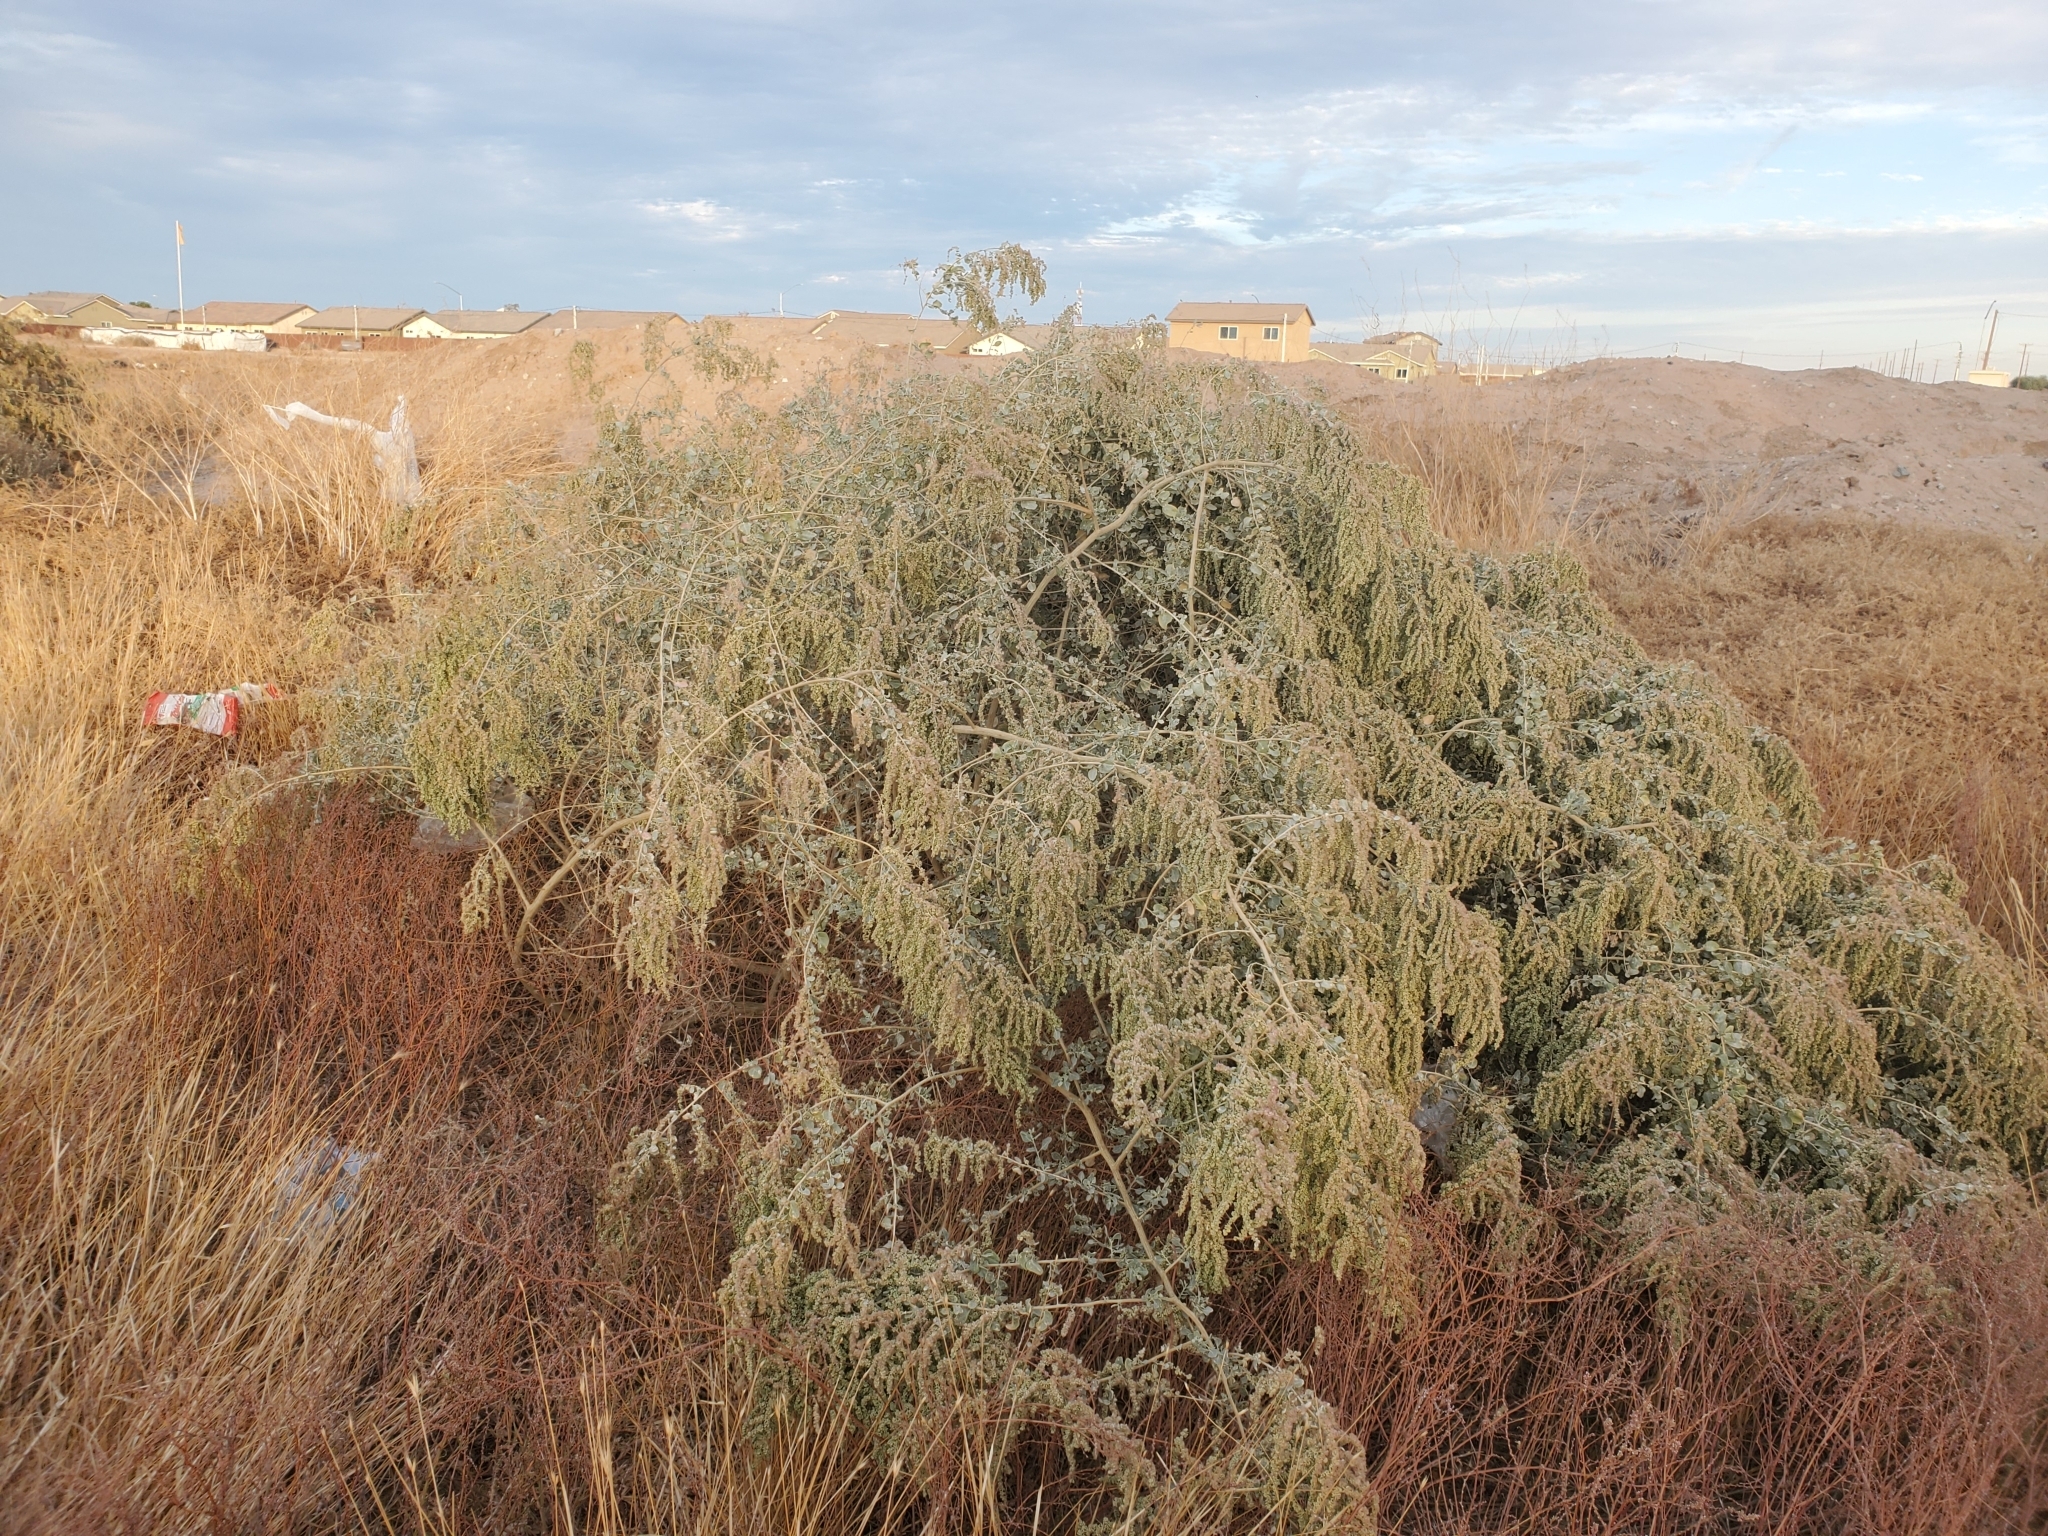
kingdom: Plantae
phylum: Tracheophyta
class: Magnoliopsida
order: Caryophyllales
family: Amaranthaceae
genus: Atriplex
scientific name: Atriplex lentiformis
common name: Big saltbush
